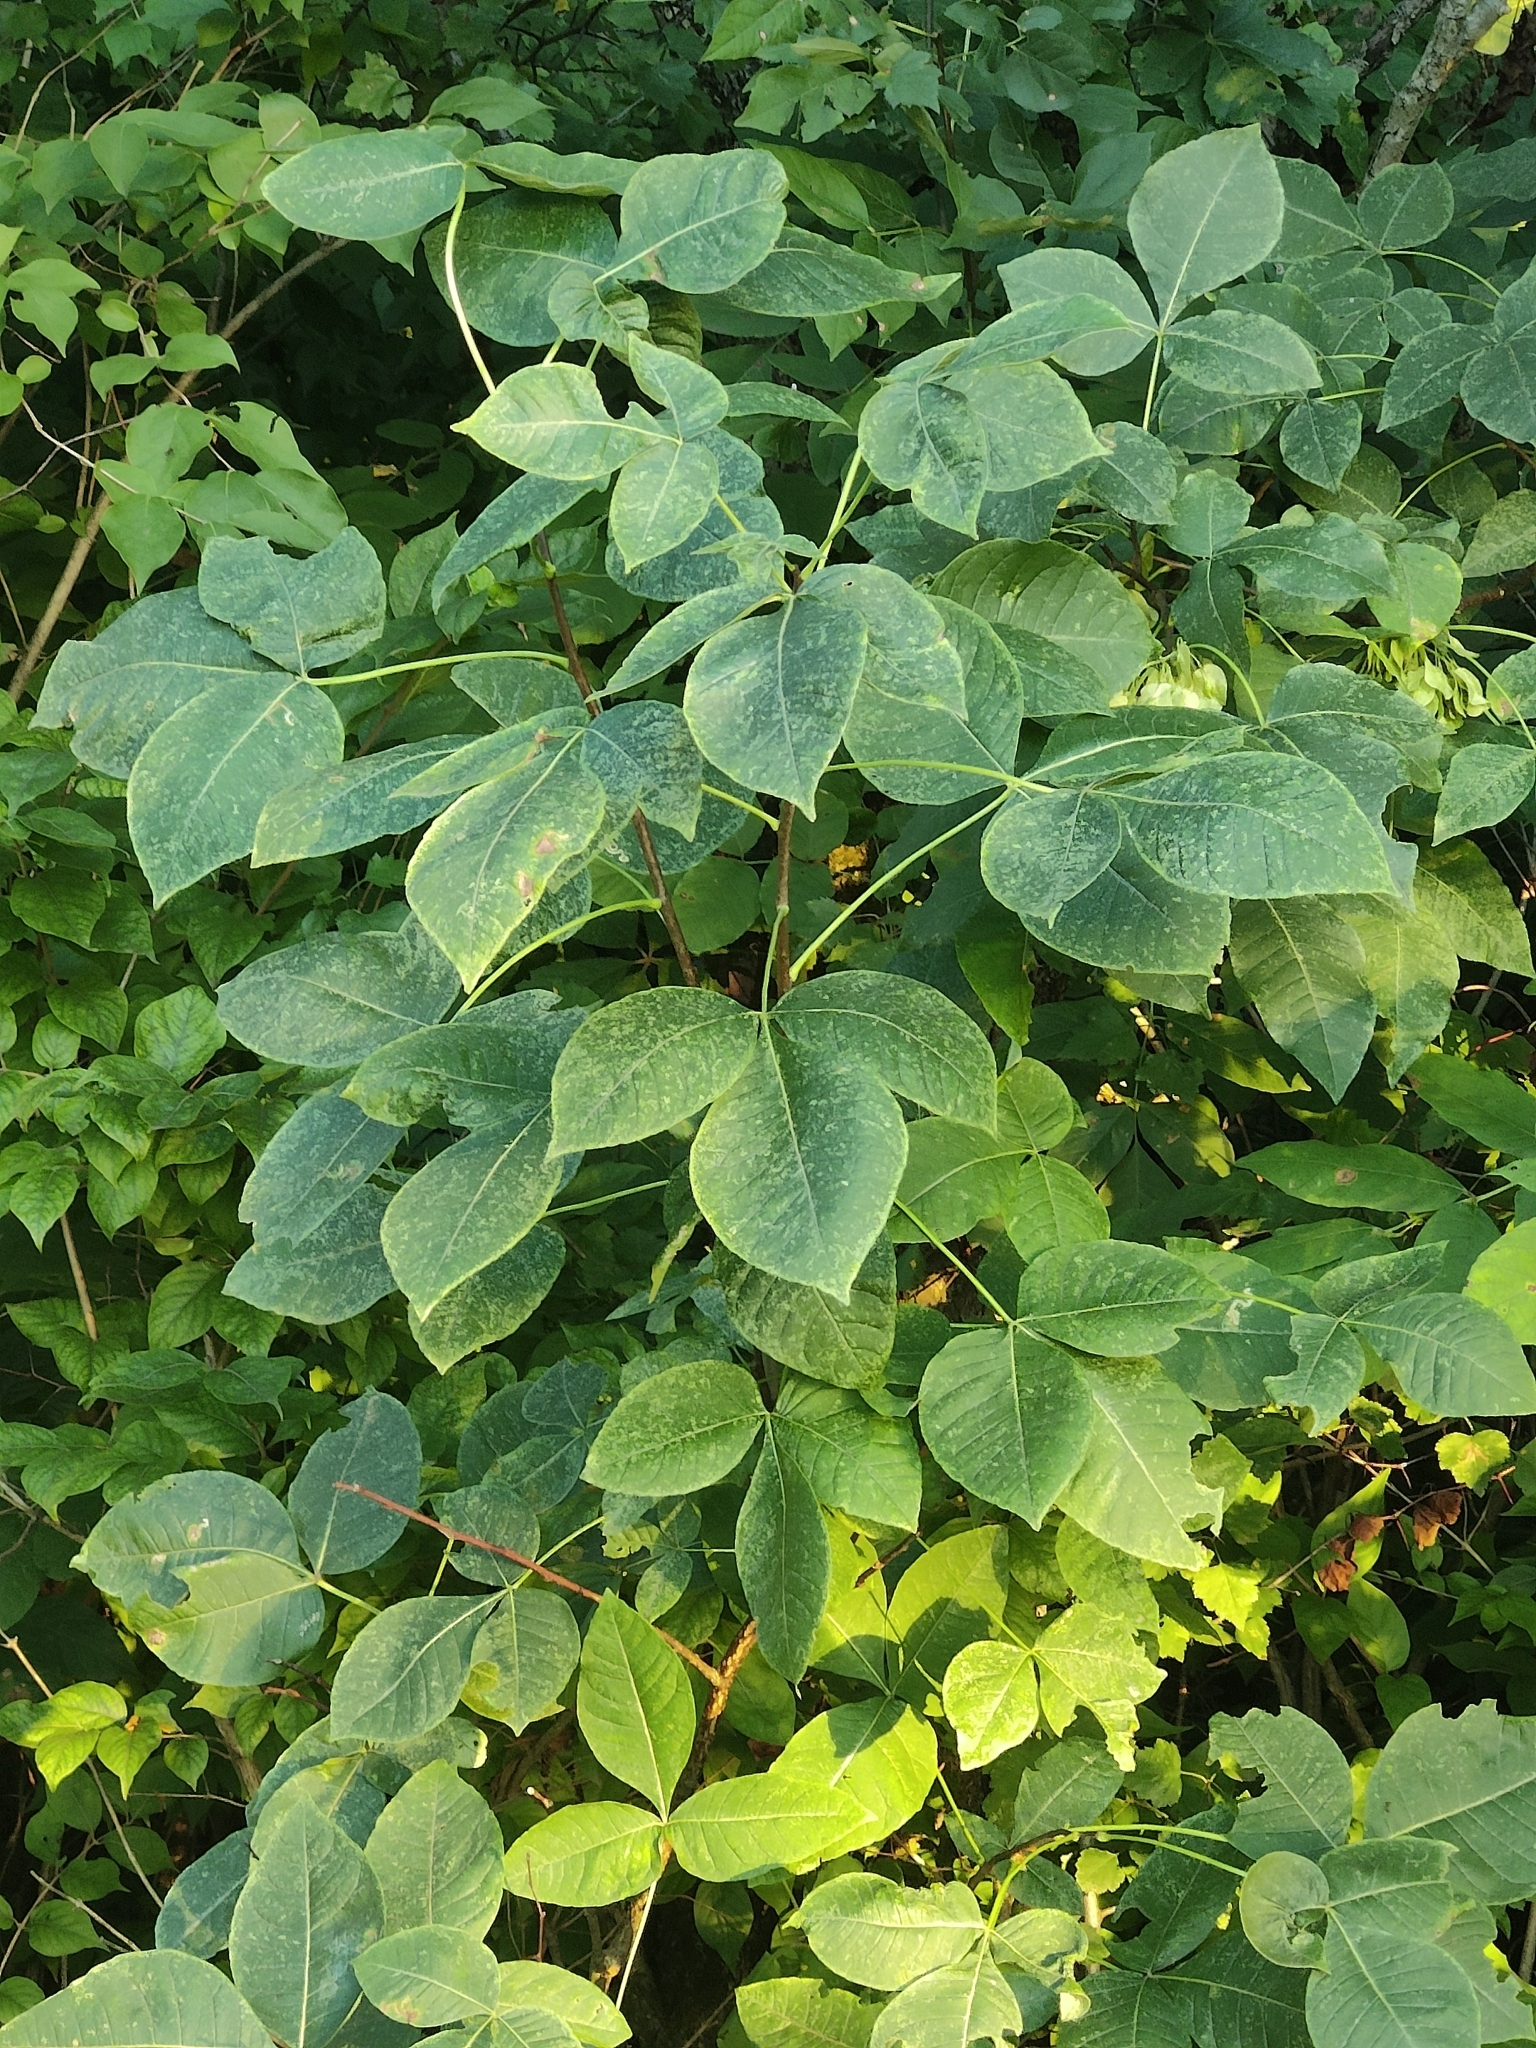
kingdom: Plantae
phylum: Tracheophyta
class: Magnoliopsida
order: Sapindales
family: Rutaceae
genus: Ptelea
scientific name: Ptelea trifoliata
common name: Common hop-tree
